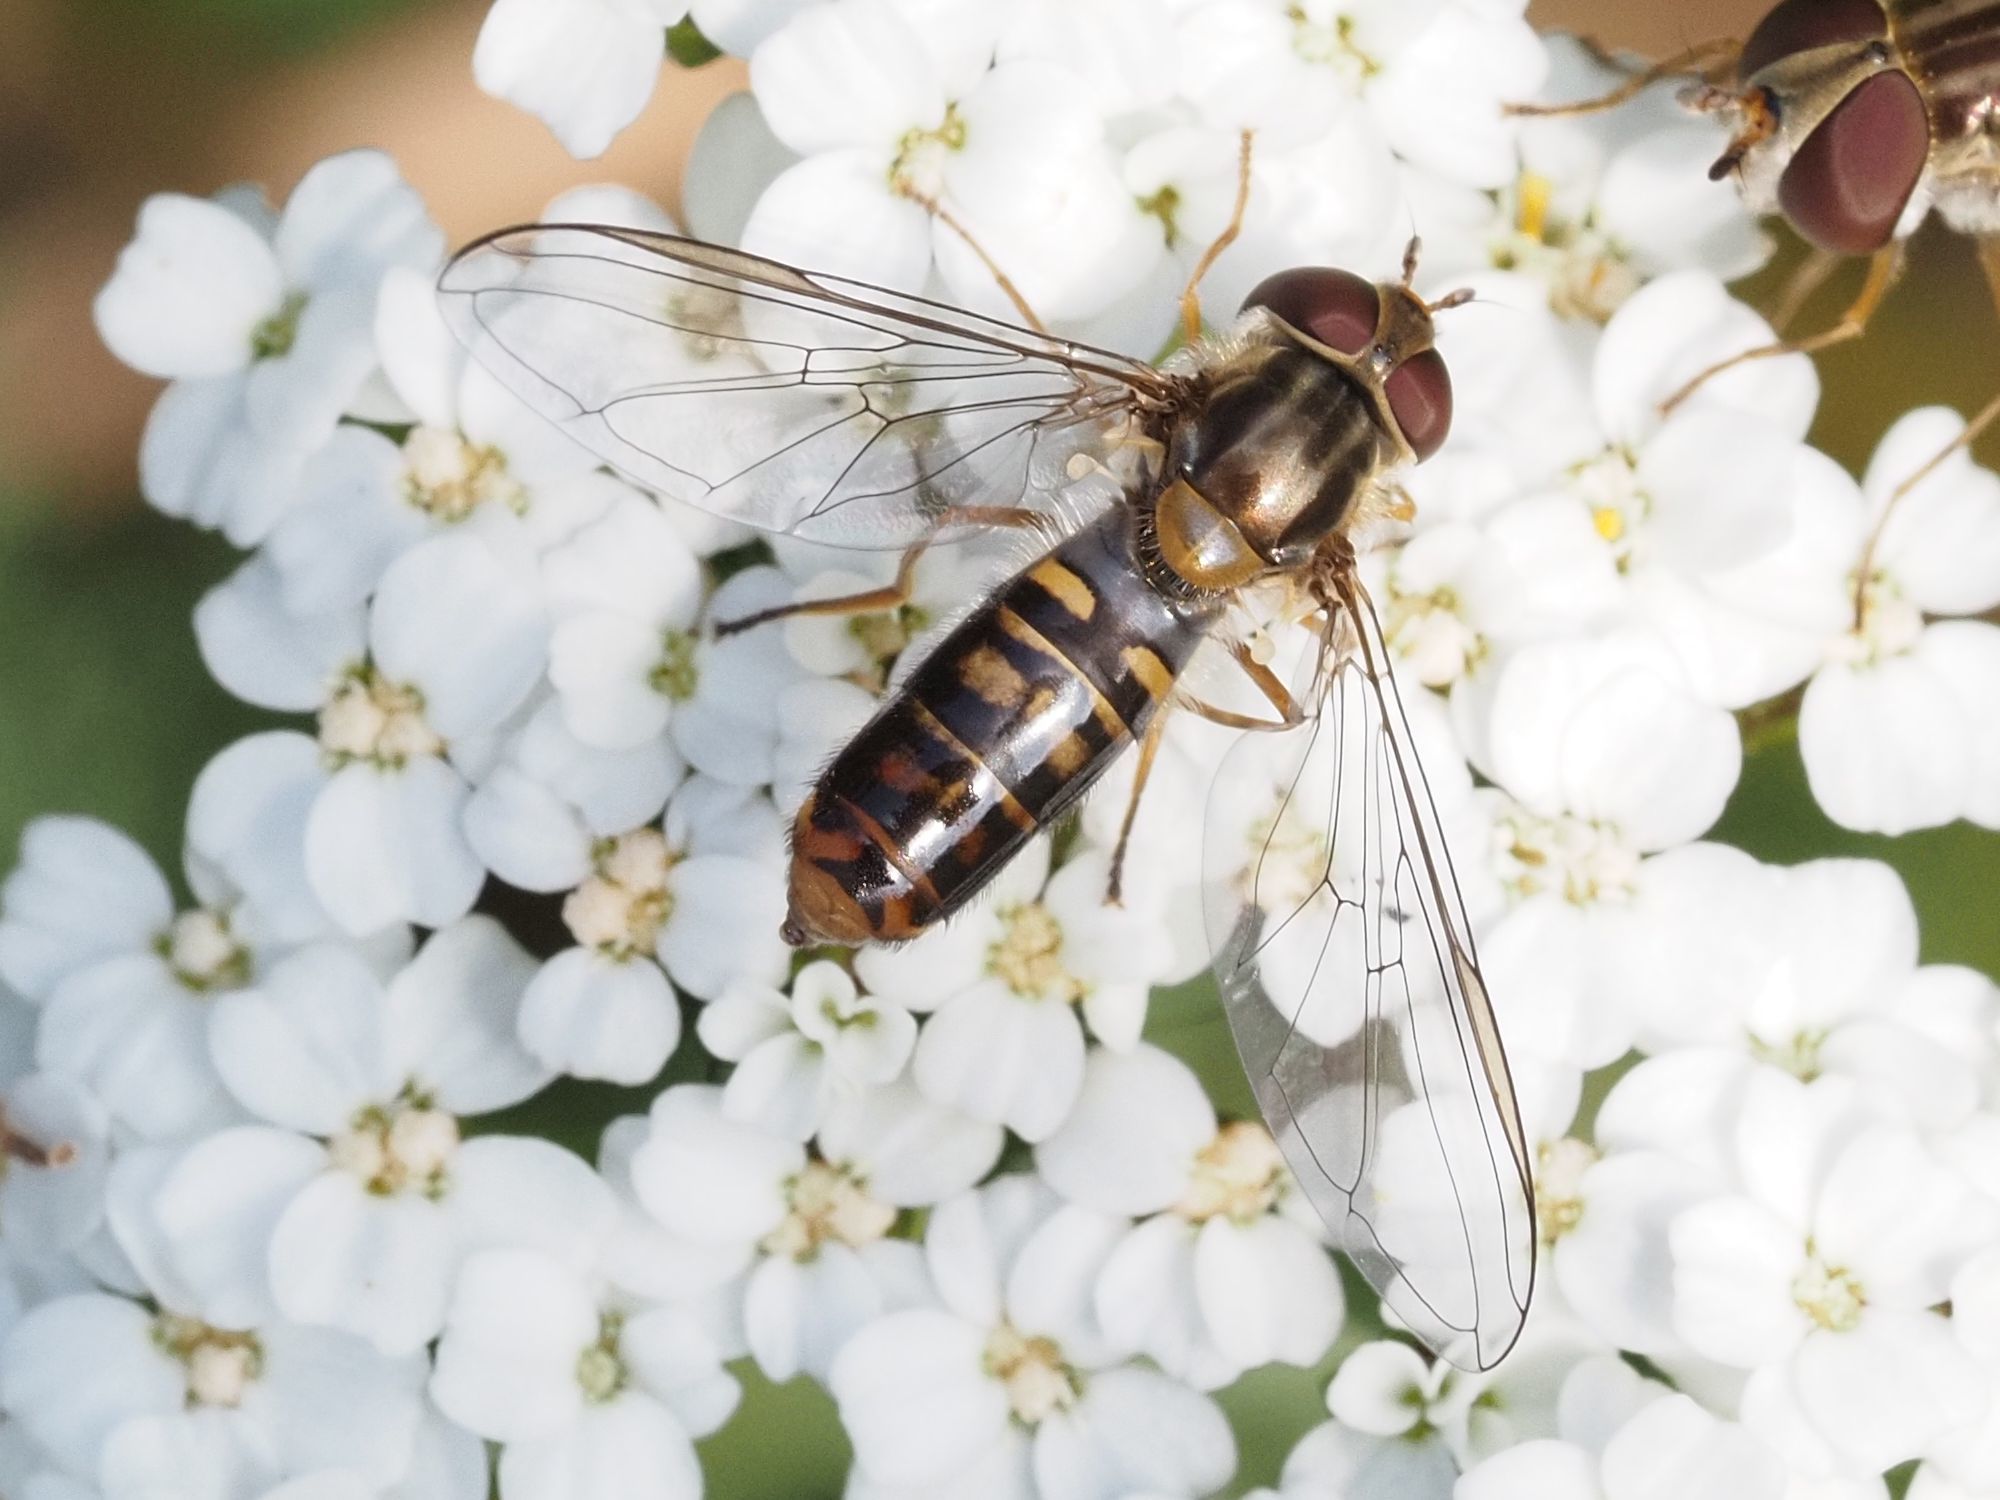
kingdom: Animalia
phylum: Arthropoda
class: Insecta
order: Diptera
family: Syrphidae
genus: Episyrphus
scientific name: Episyrphus balteatus
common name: Marmalade hoverfly
